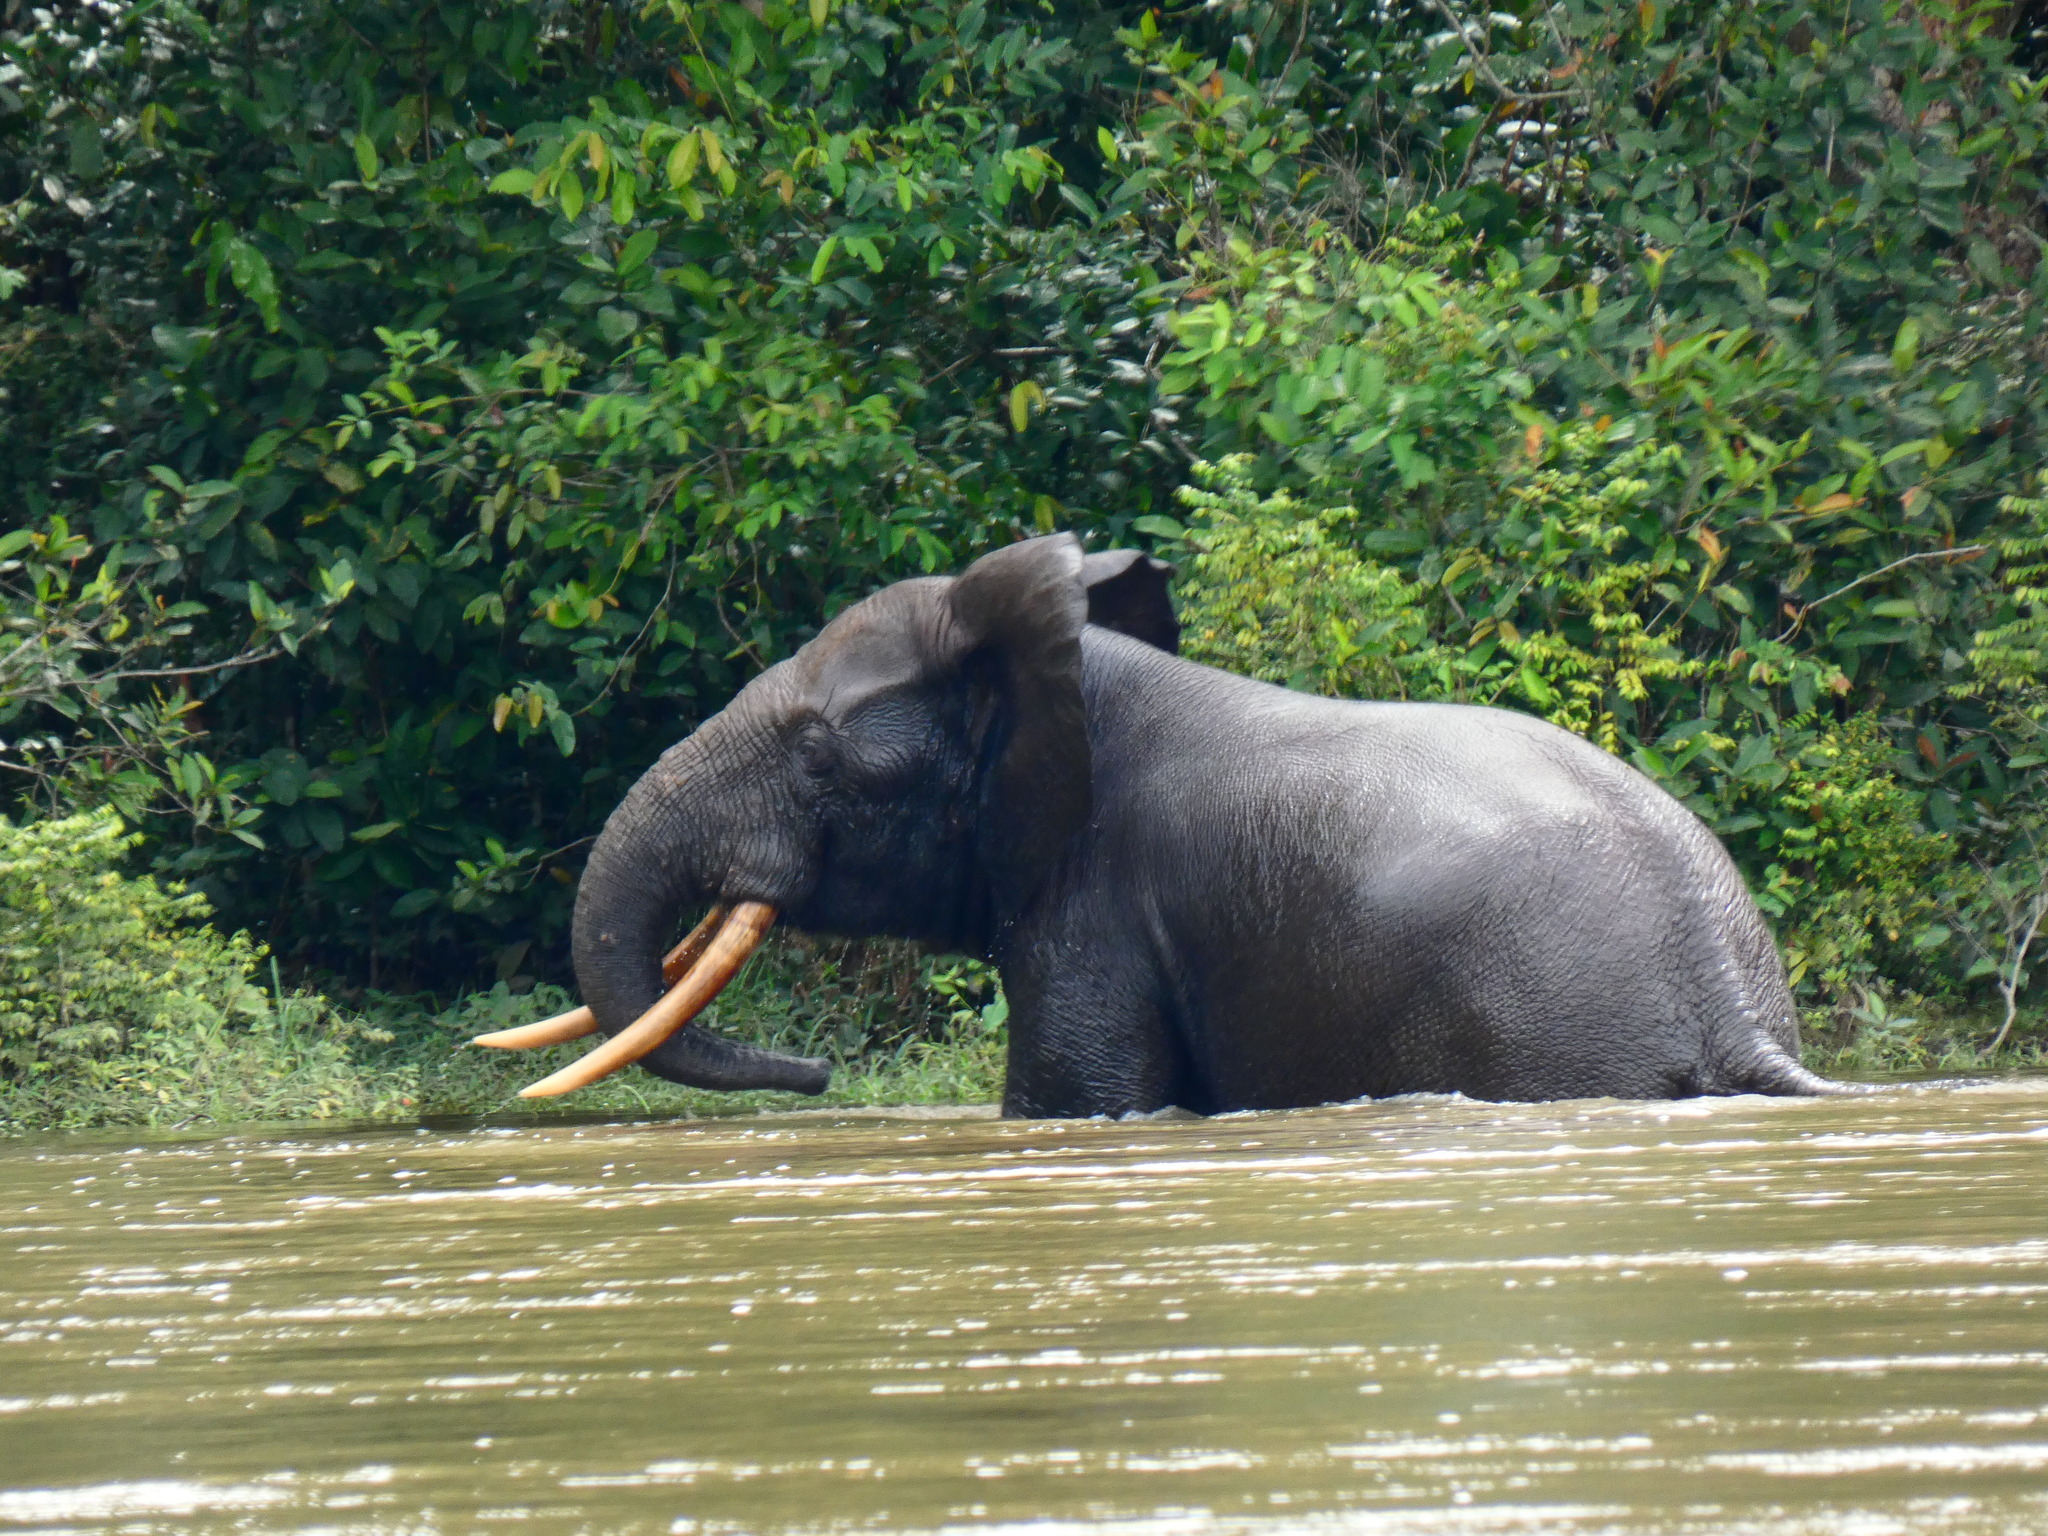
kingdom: Animalia
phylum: Chordata
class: Mammalia
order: Proboscidea
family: Elephantidae
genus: Loxodonta
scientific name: Loxodonta cyclotis
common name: African forest elephant
